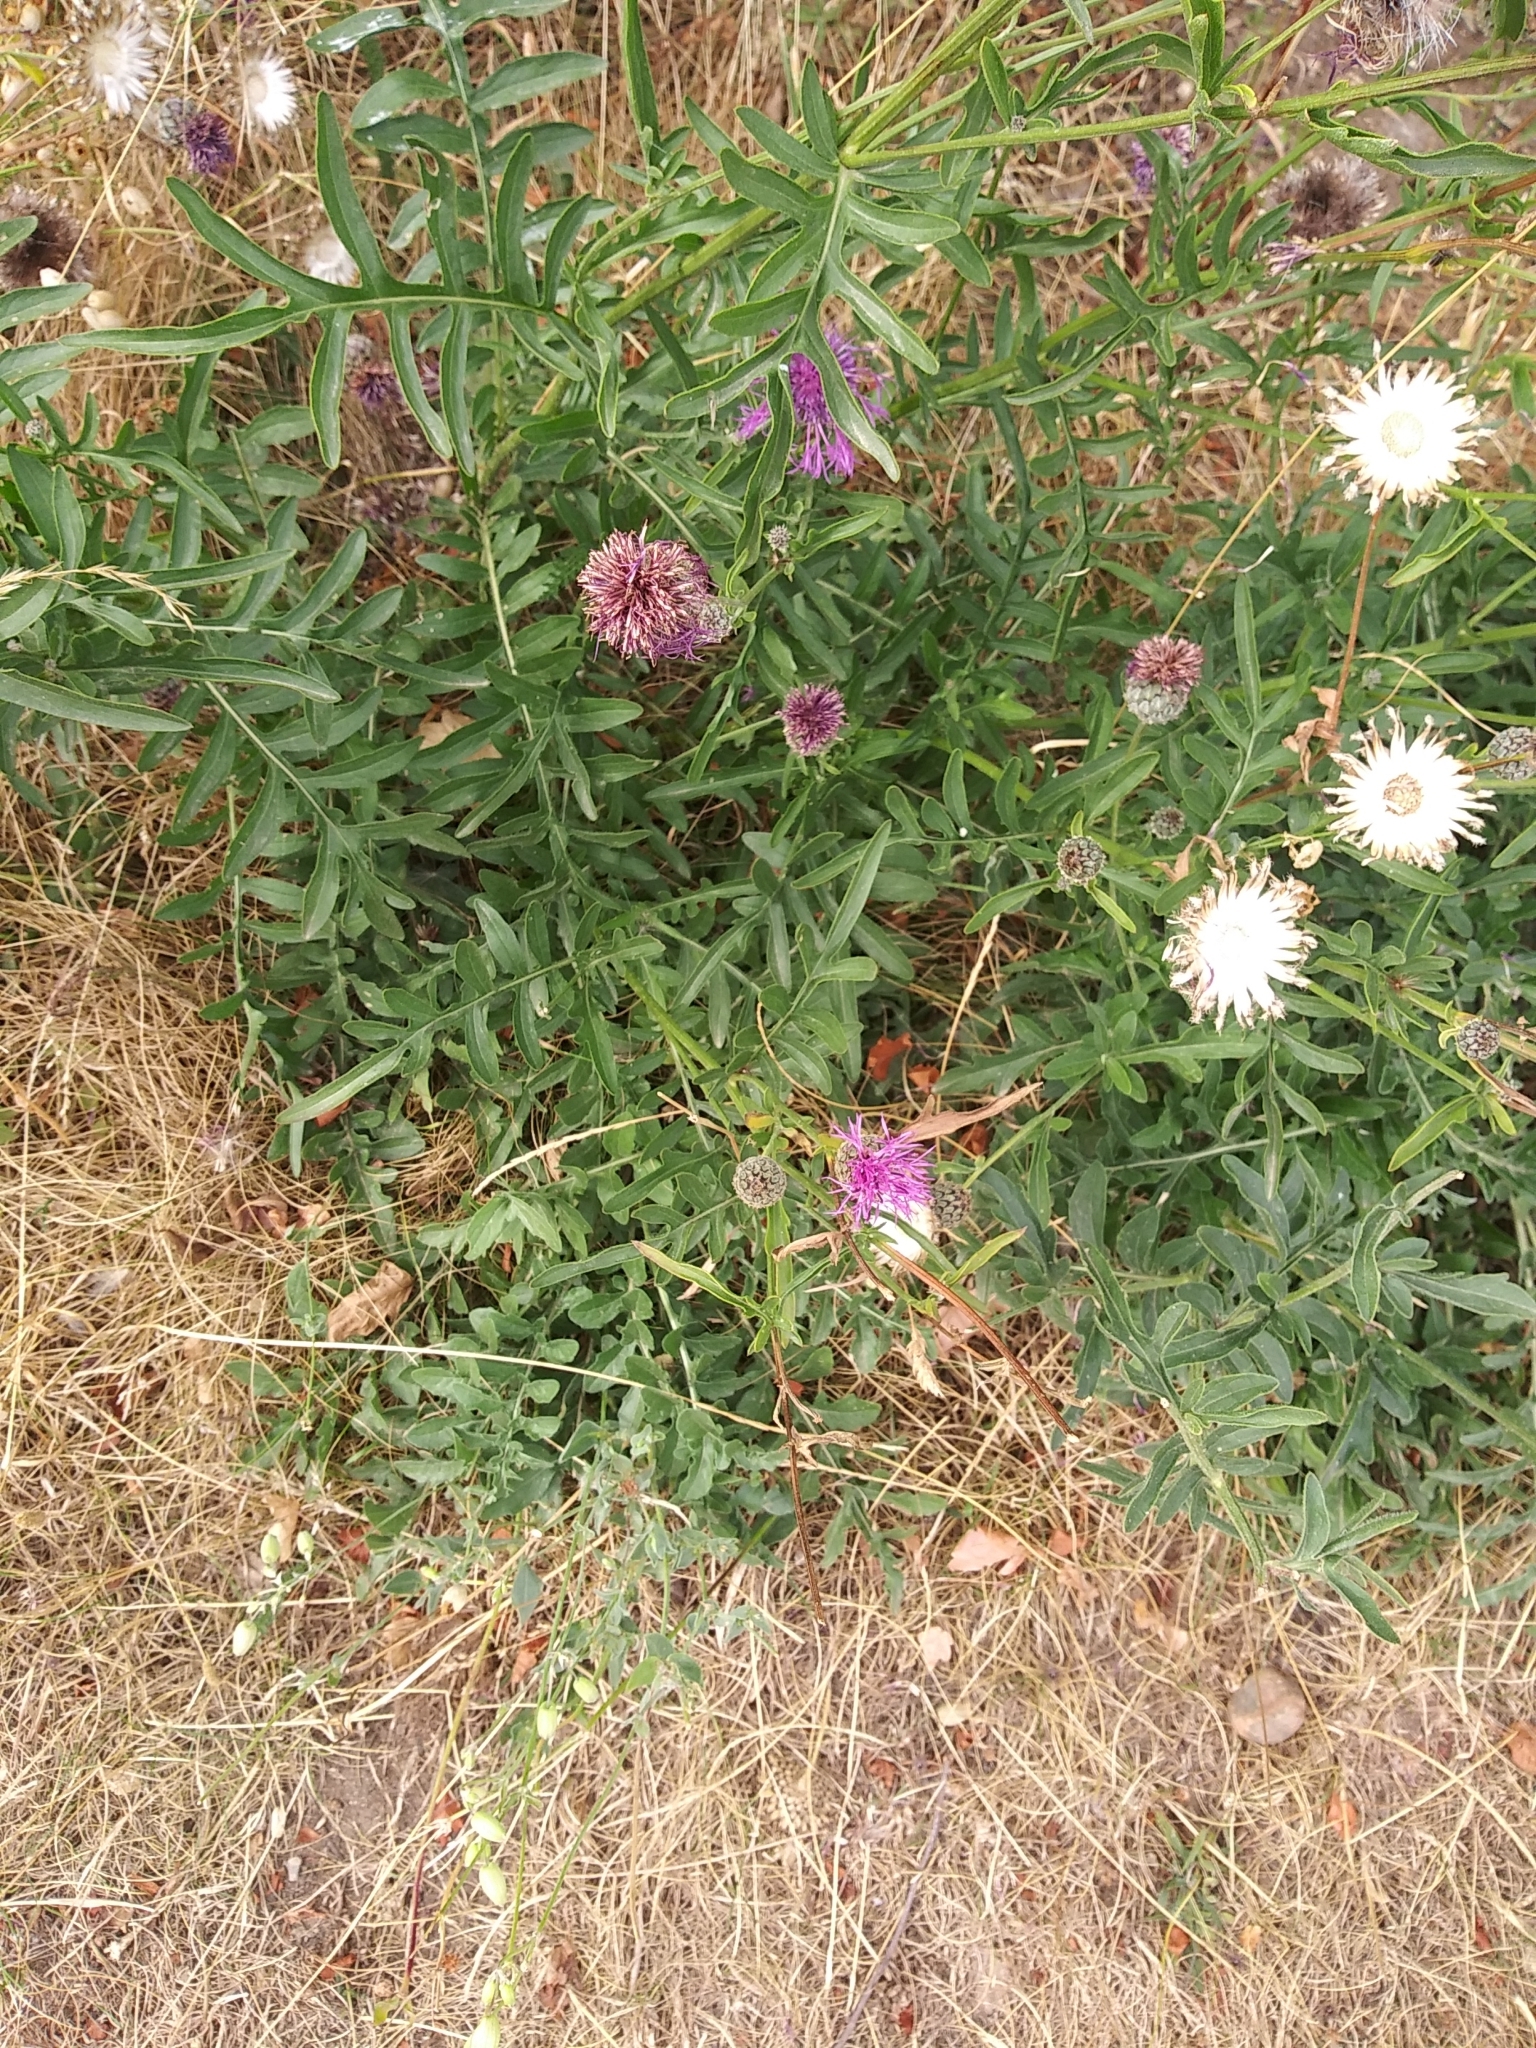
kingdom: Plantae
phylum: Tracheophyta
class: Magnoliopsida
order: Asterales
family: Asteraceae
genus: Centaurea
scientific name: Centaurea scabiosa
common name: Greater knapweed
